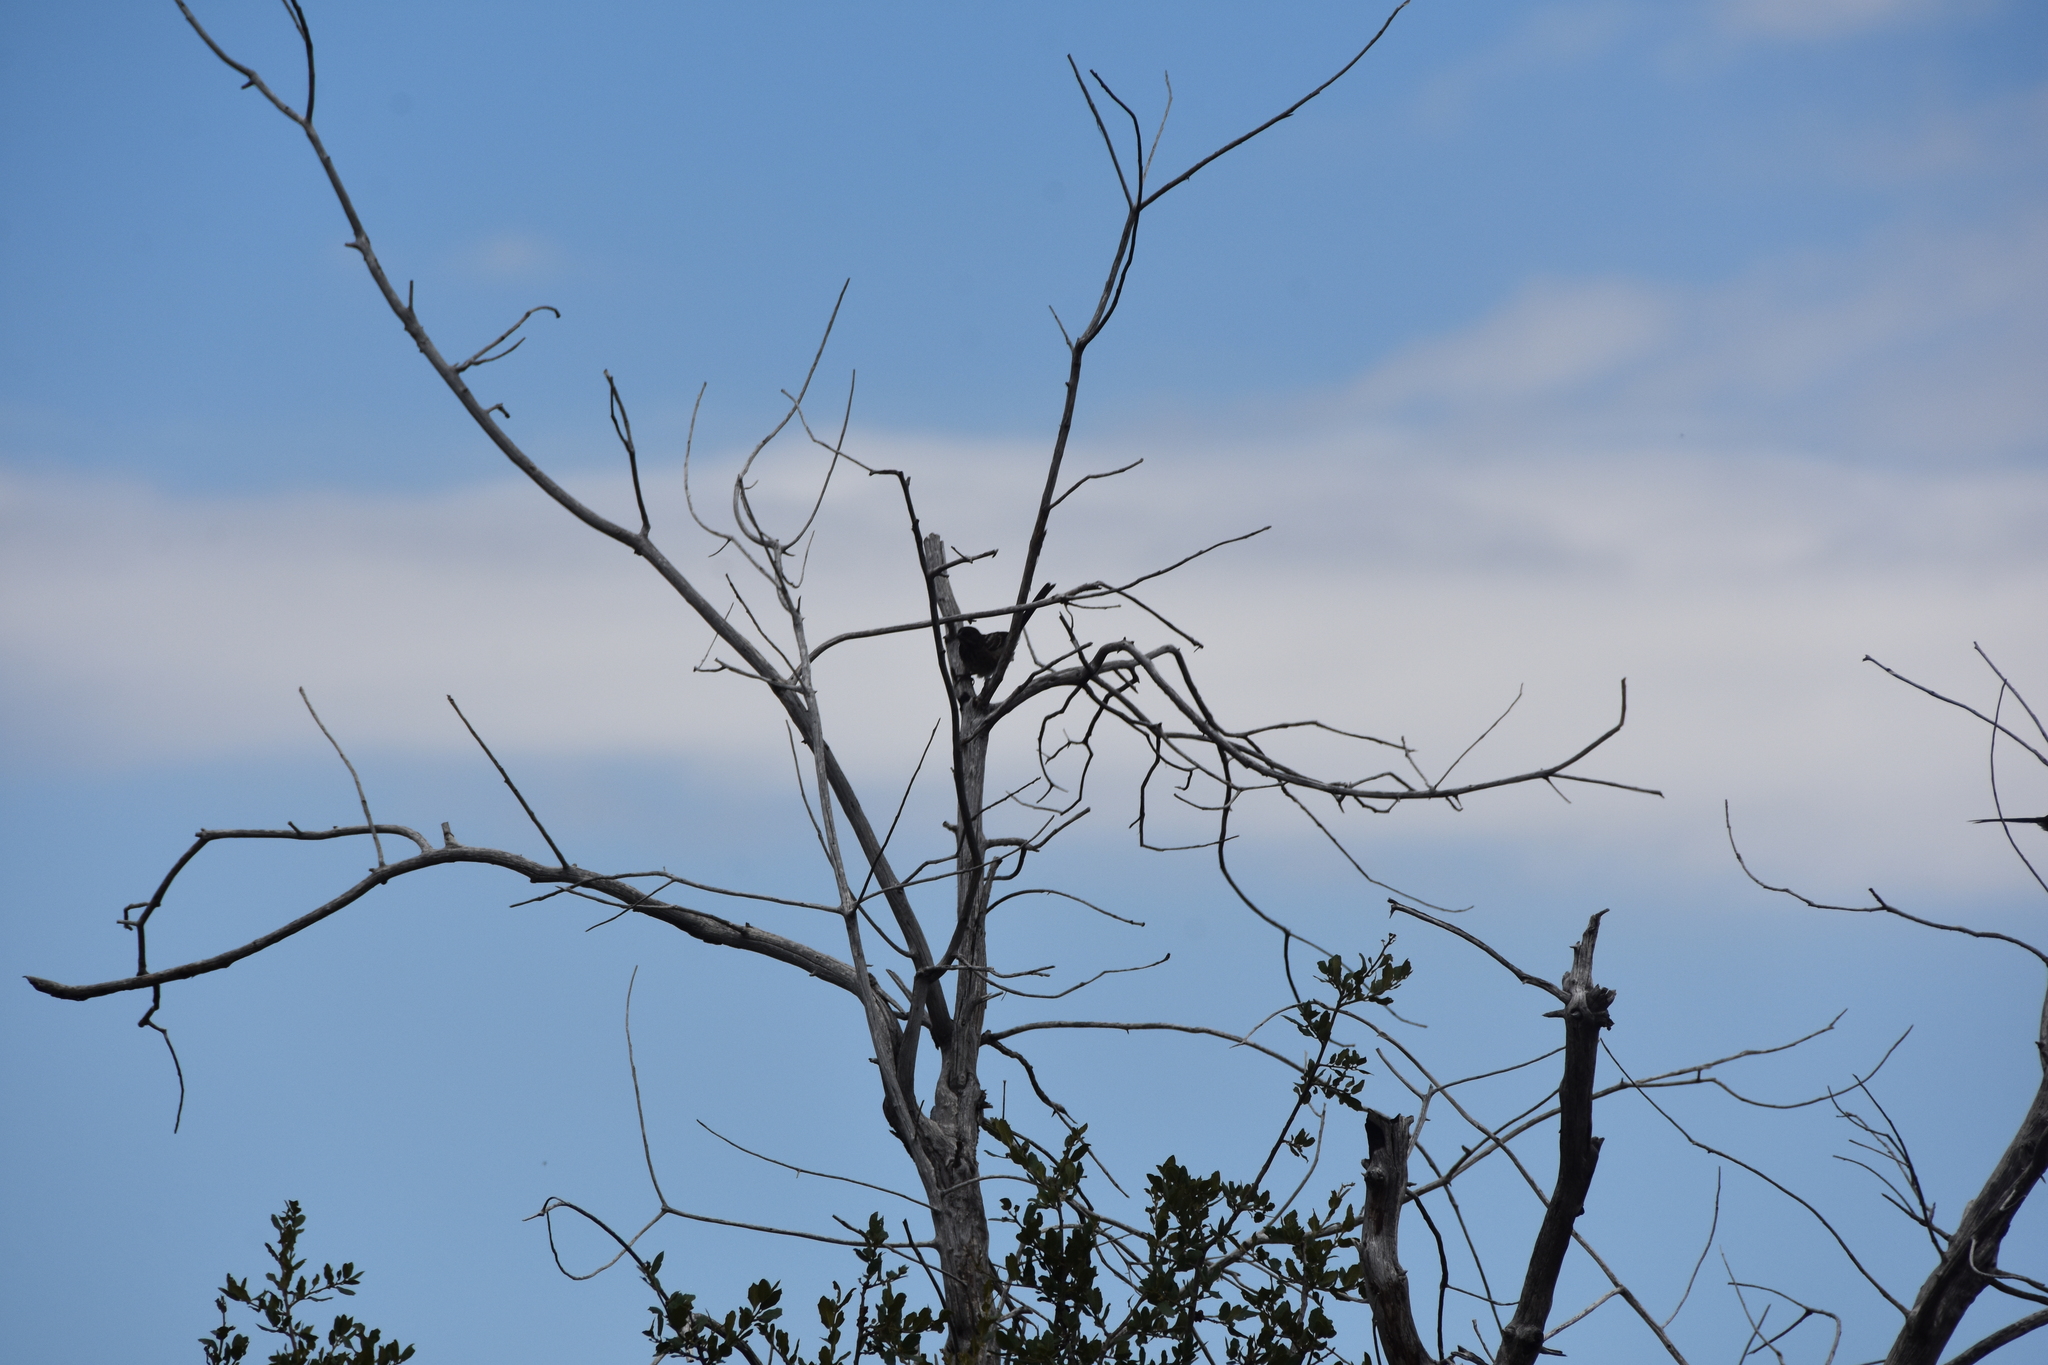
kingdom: Animalia
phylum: Chordata
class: Aves
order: Passeriformes
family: Passerellidae
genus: Pipilo
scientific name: Pipilo maculatus
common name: Spotted towhee
